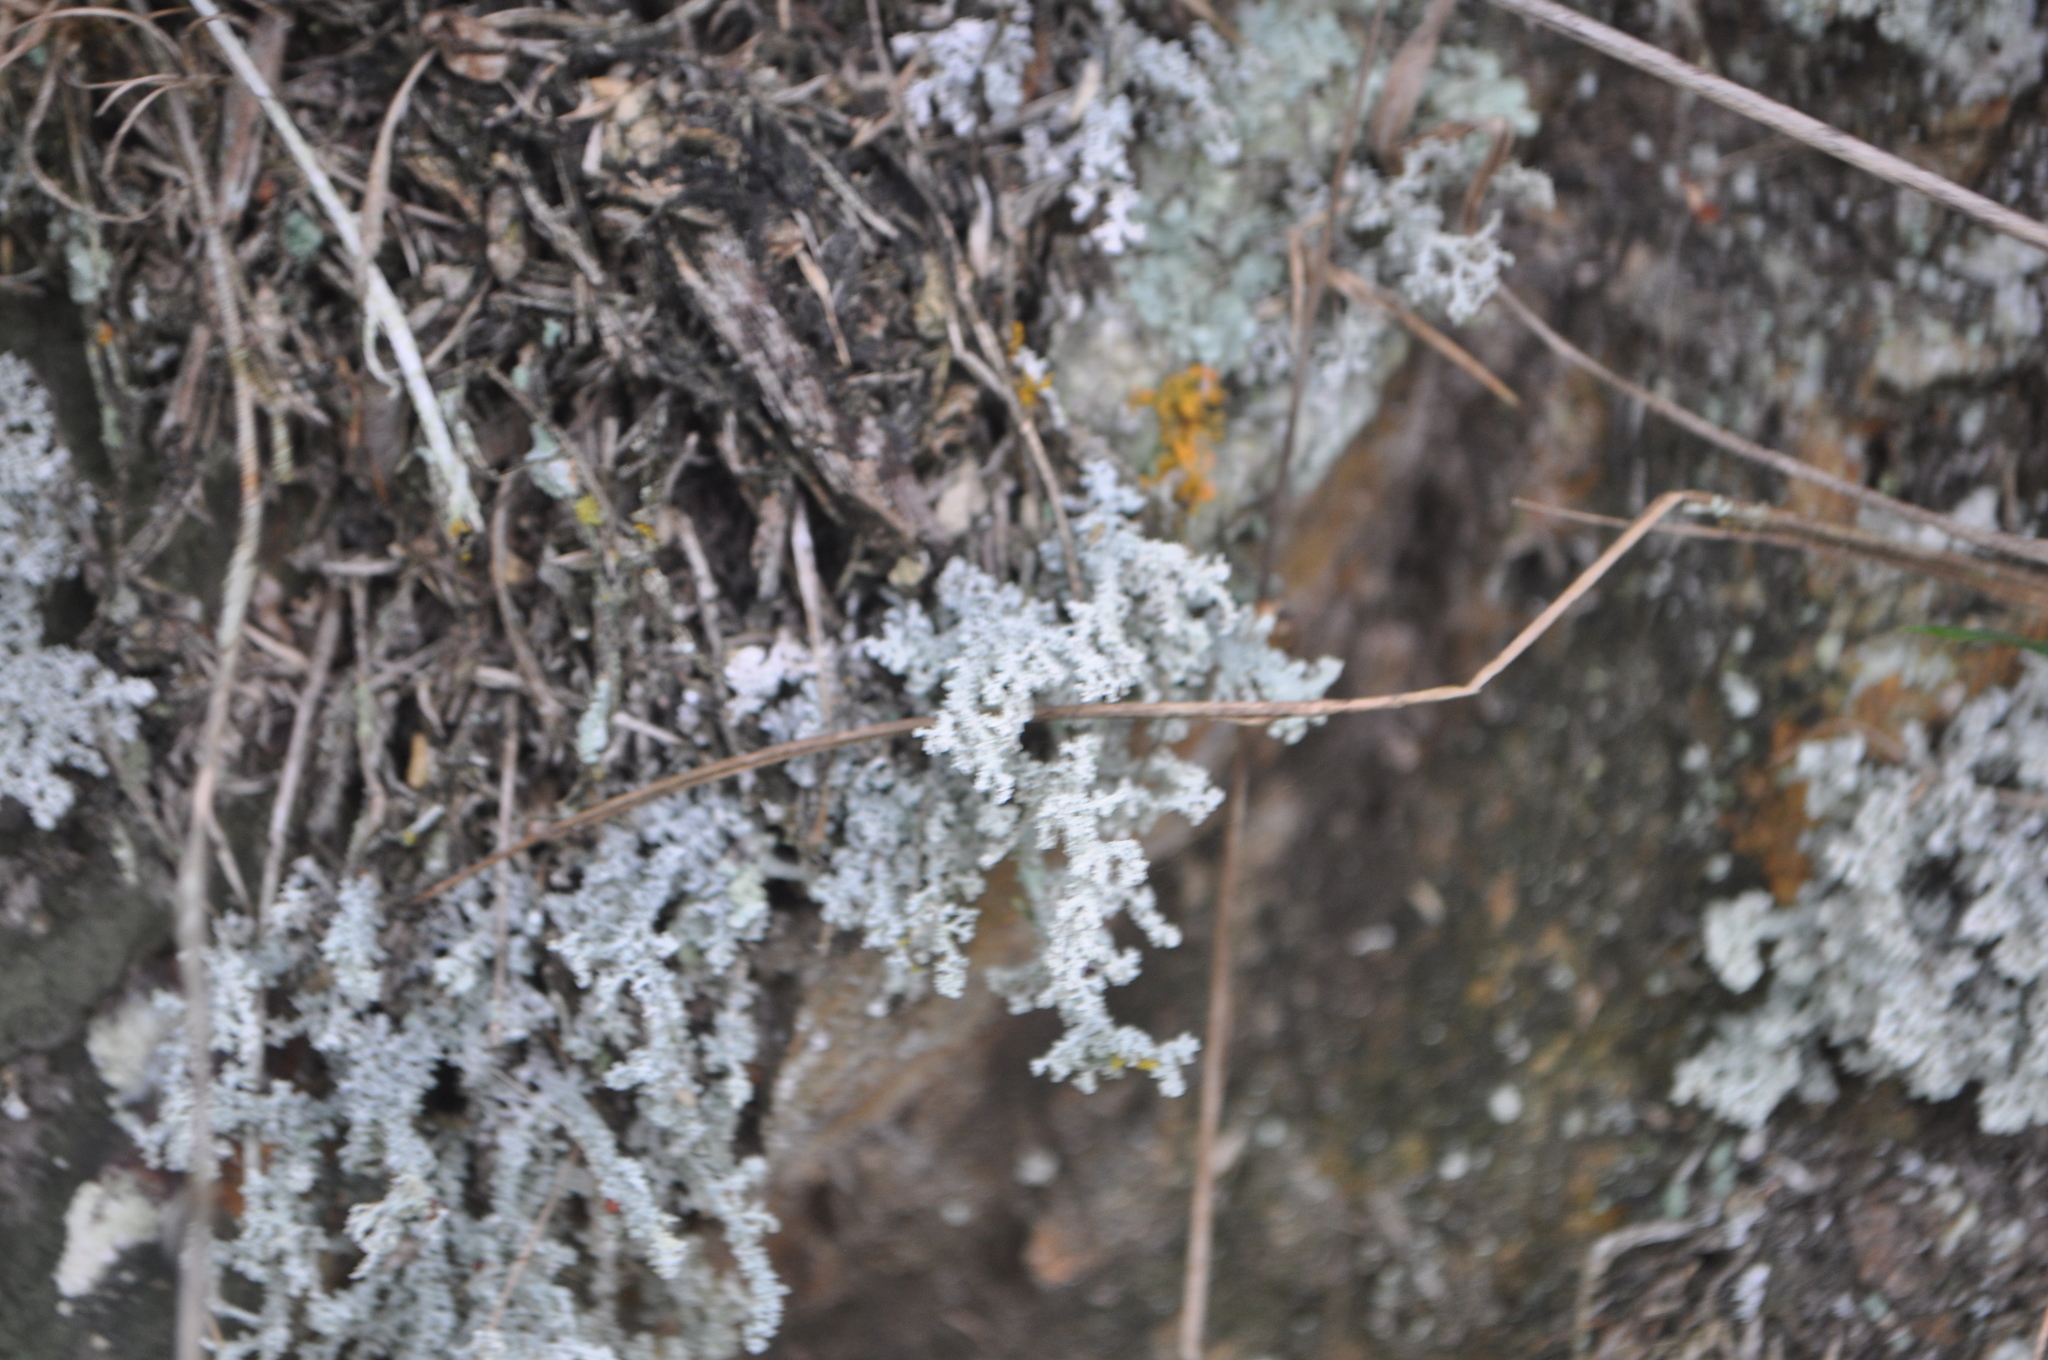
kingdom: Fungi
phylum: Ascomycota
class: Lecanoromycetes
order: Lecanorales
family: Stereocaulaceae
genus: Stereocaulon
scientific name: Stereocaulon ramulosum
